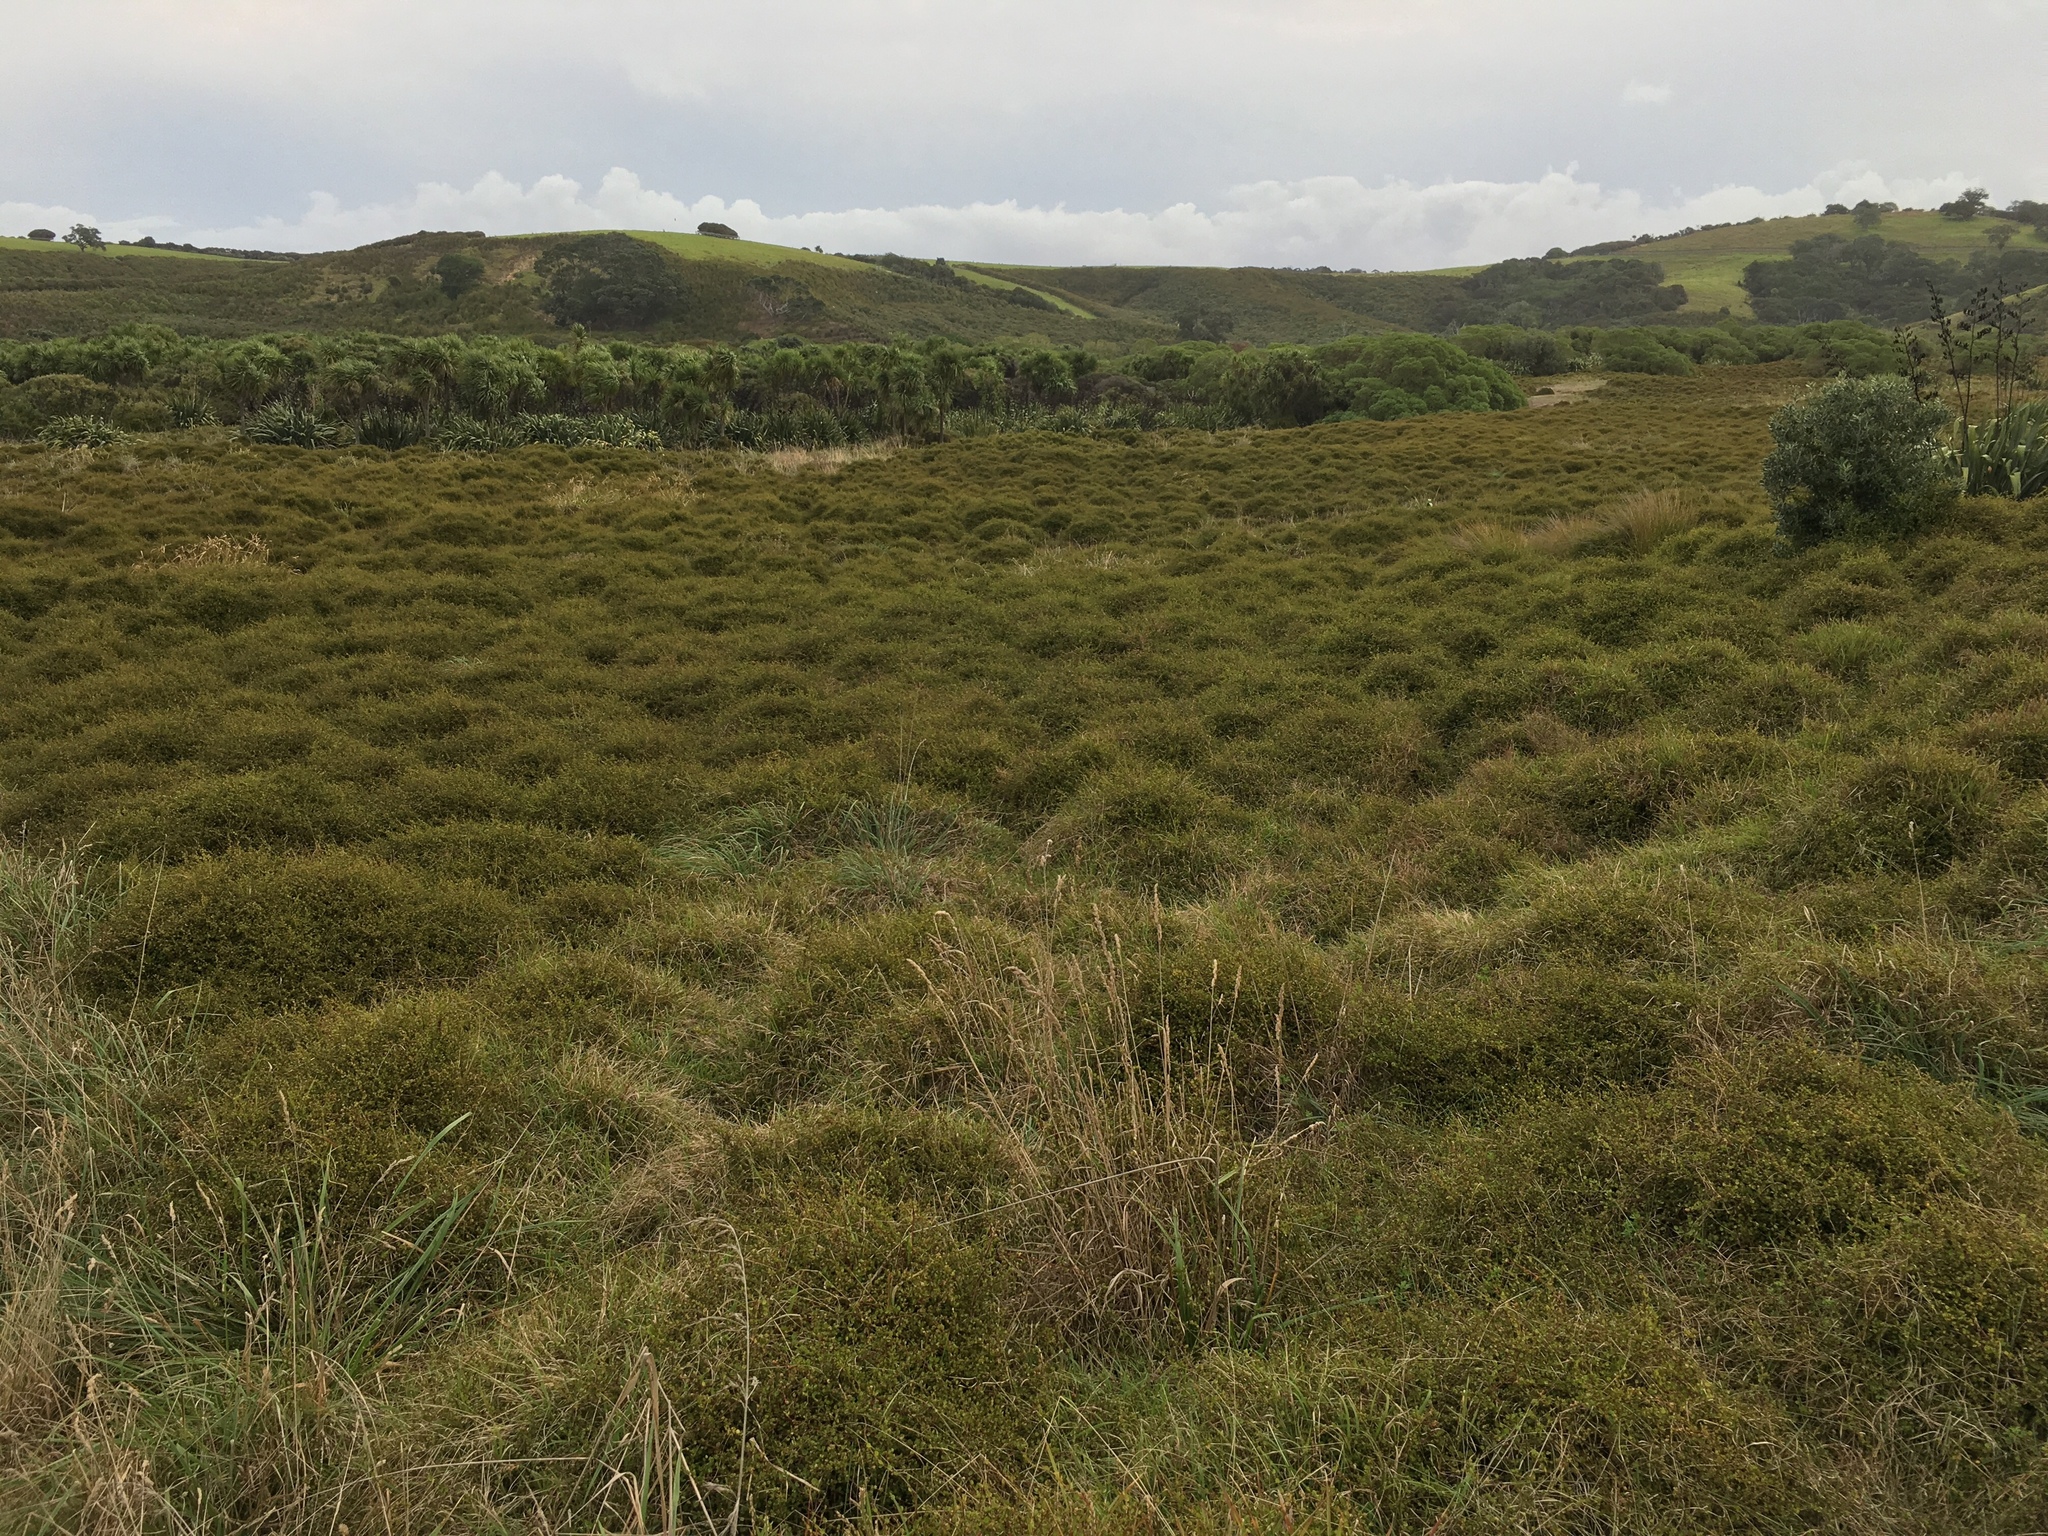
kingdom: Plantae
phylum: Tracheophyta
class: Magnoliopsida
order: Caryophyllales
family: Polygonaceae
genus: Muehlenbeckia
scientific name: Muehlenbeckia complexa
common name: Wireplant
